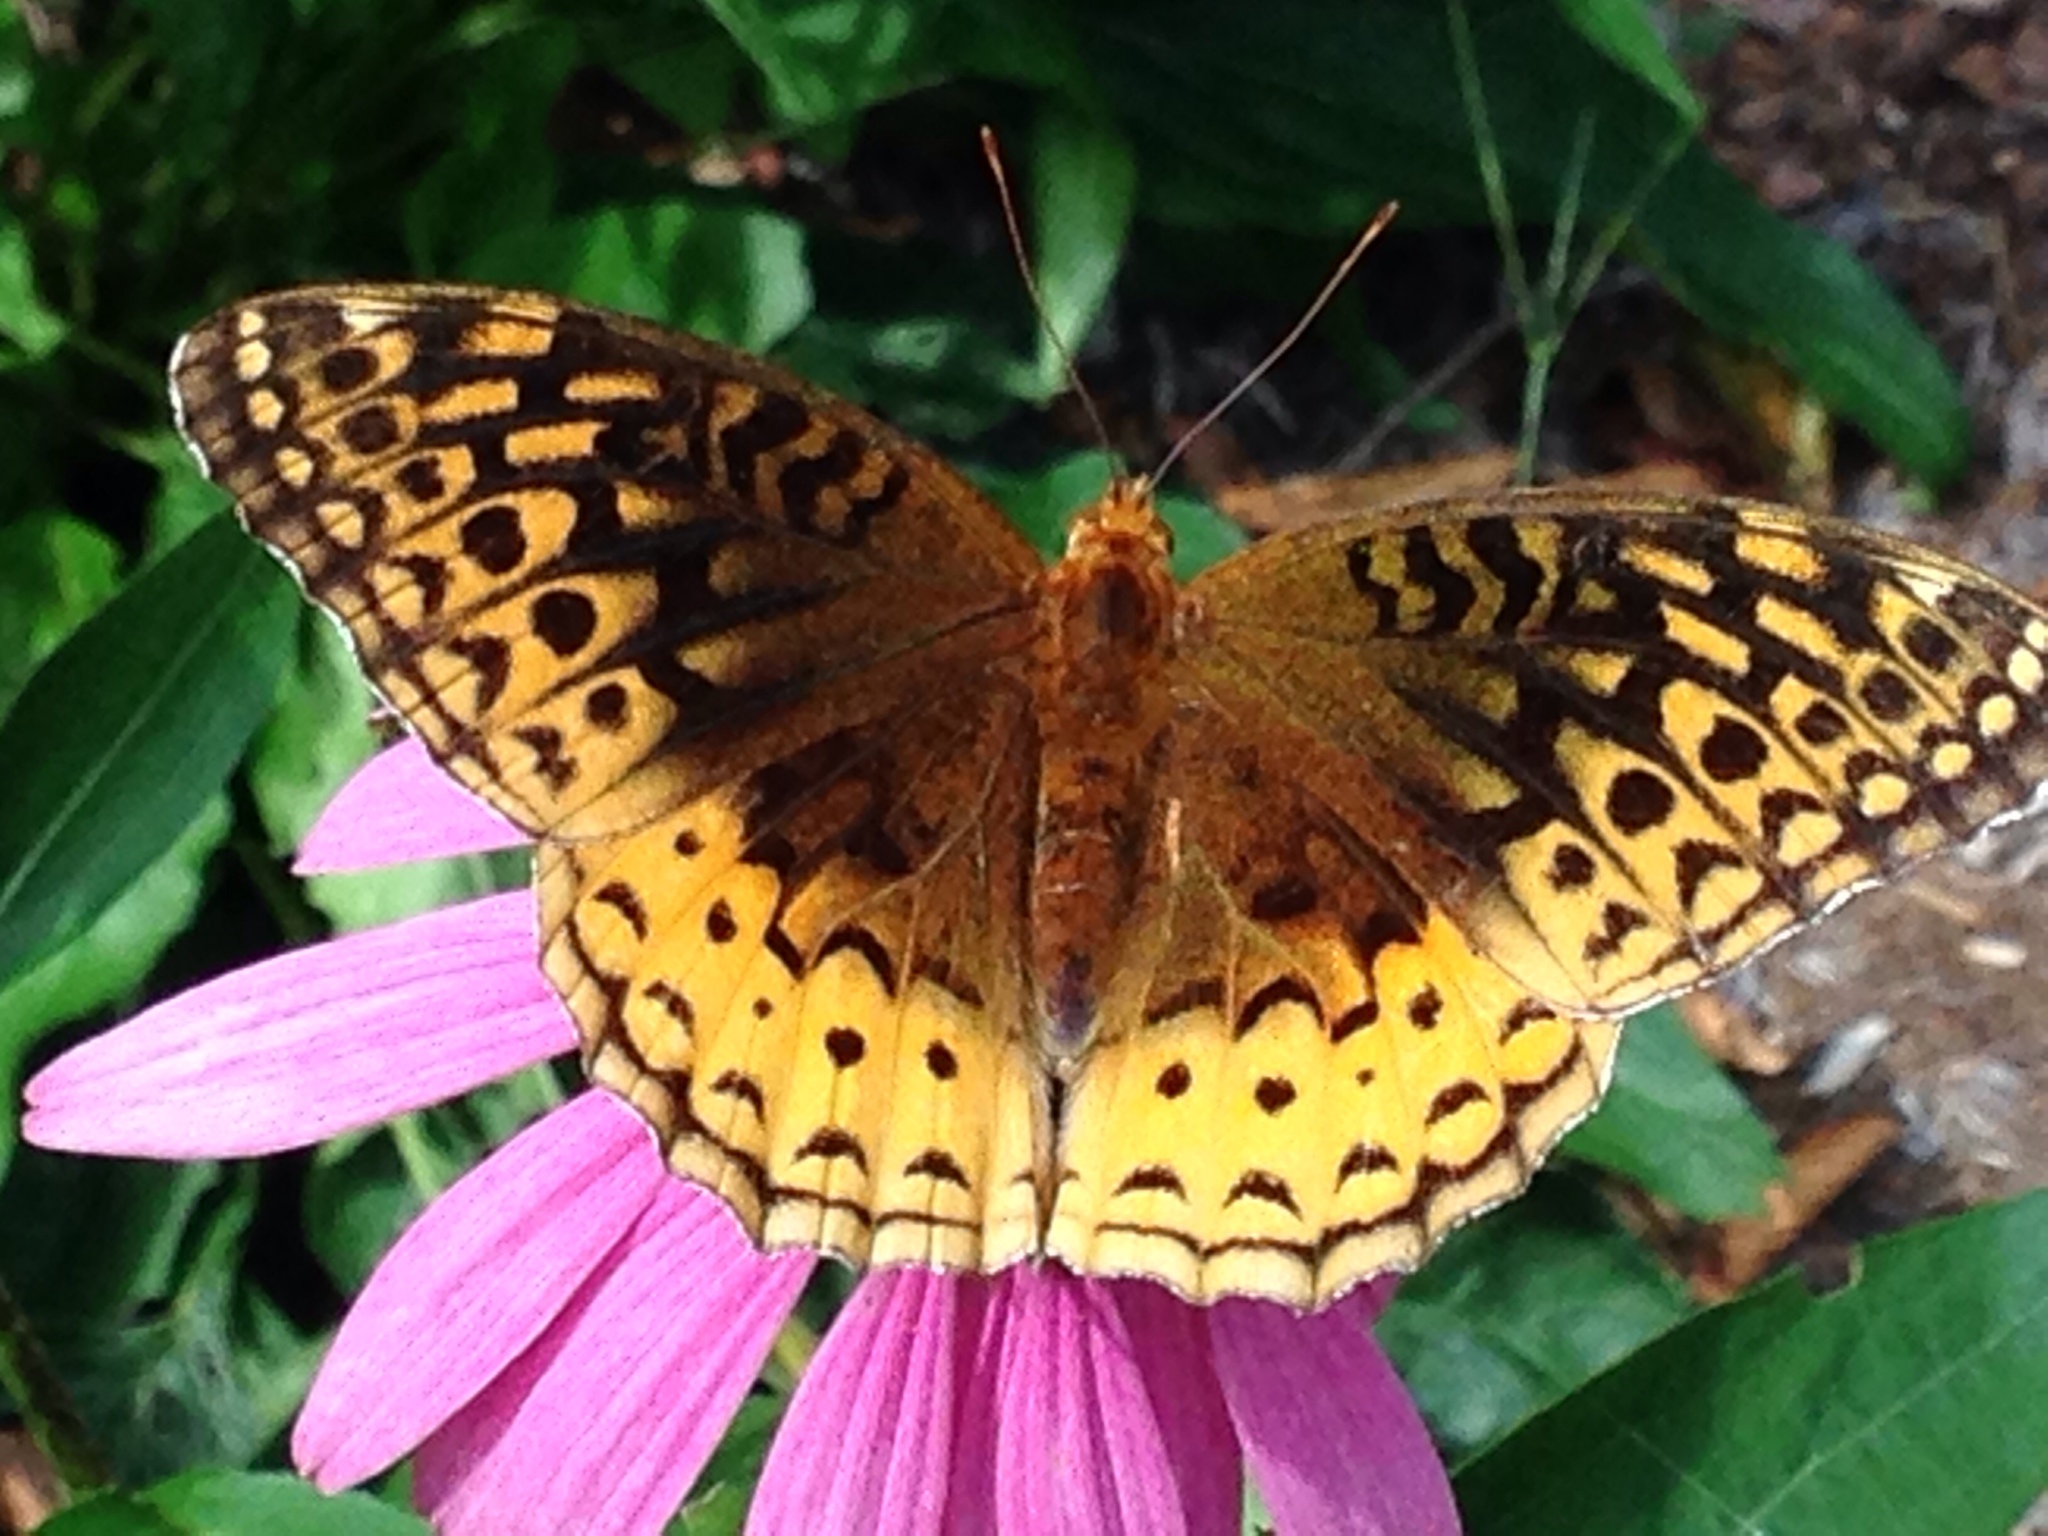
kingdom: Animalia
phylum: Arthropoda
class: Insecta
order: Lepidoptera
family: Nymphalidae
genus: Speyeria
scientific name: Speyeria cybele
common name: Great spangled fritillary
